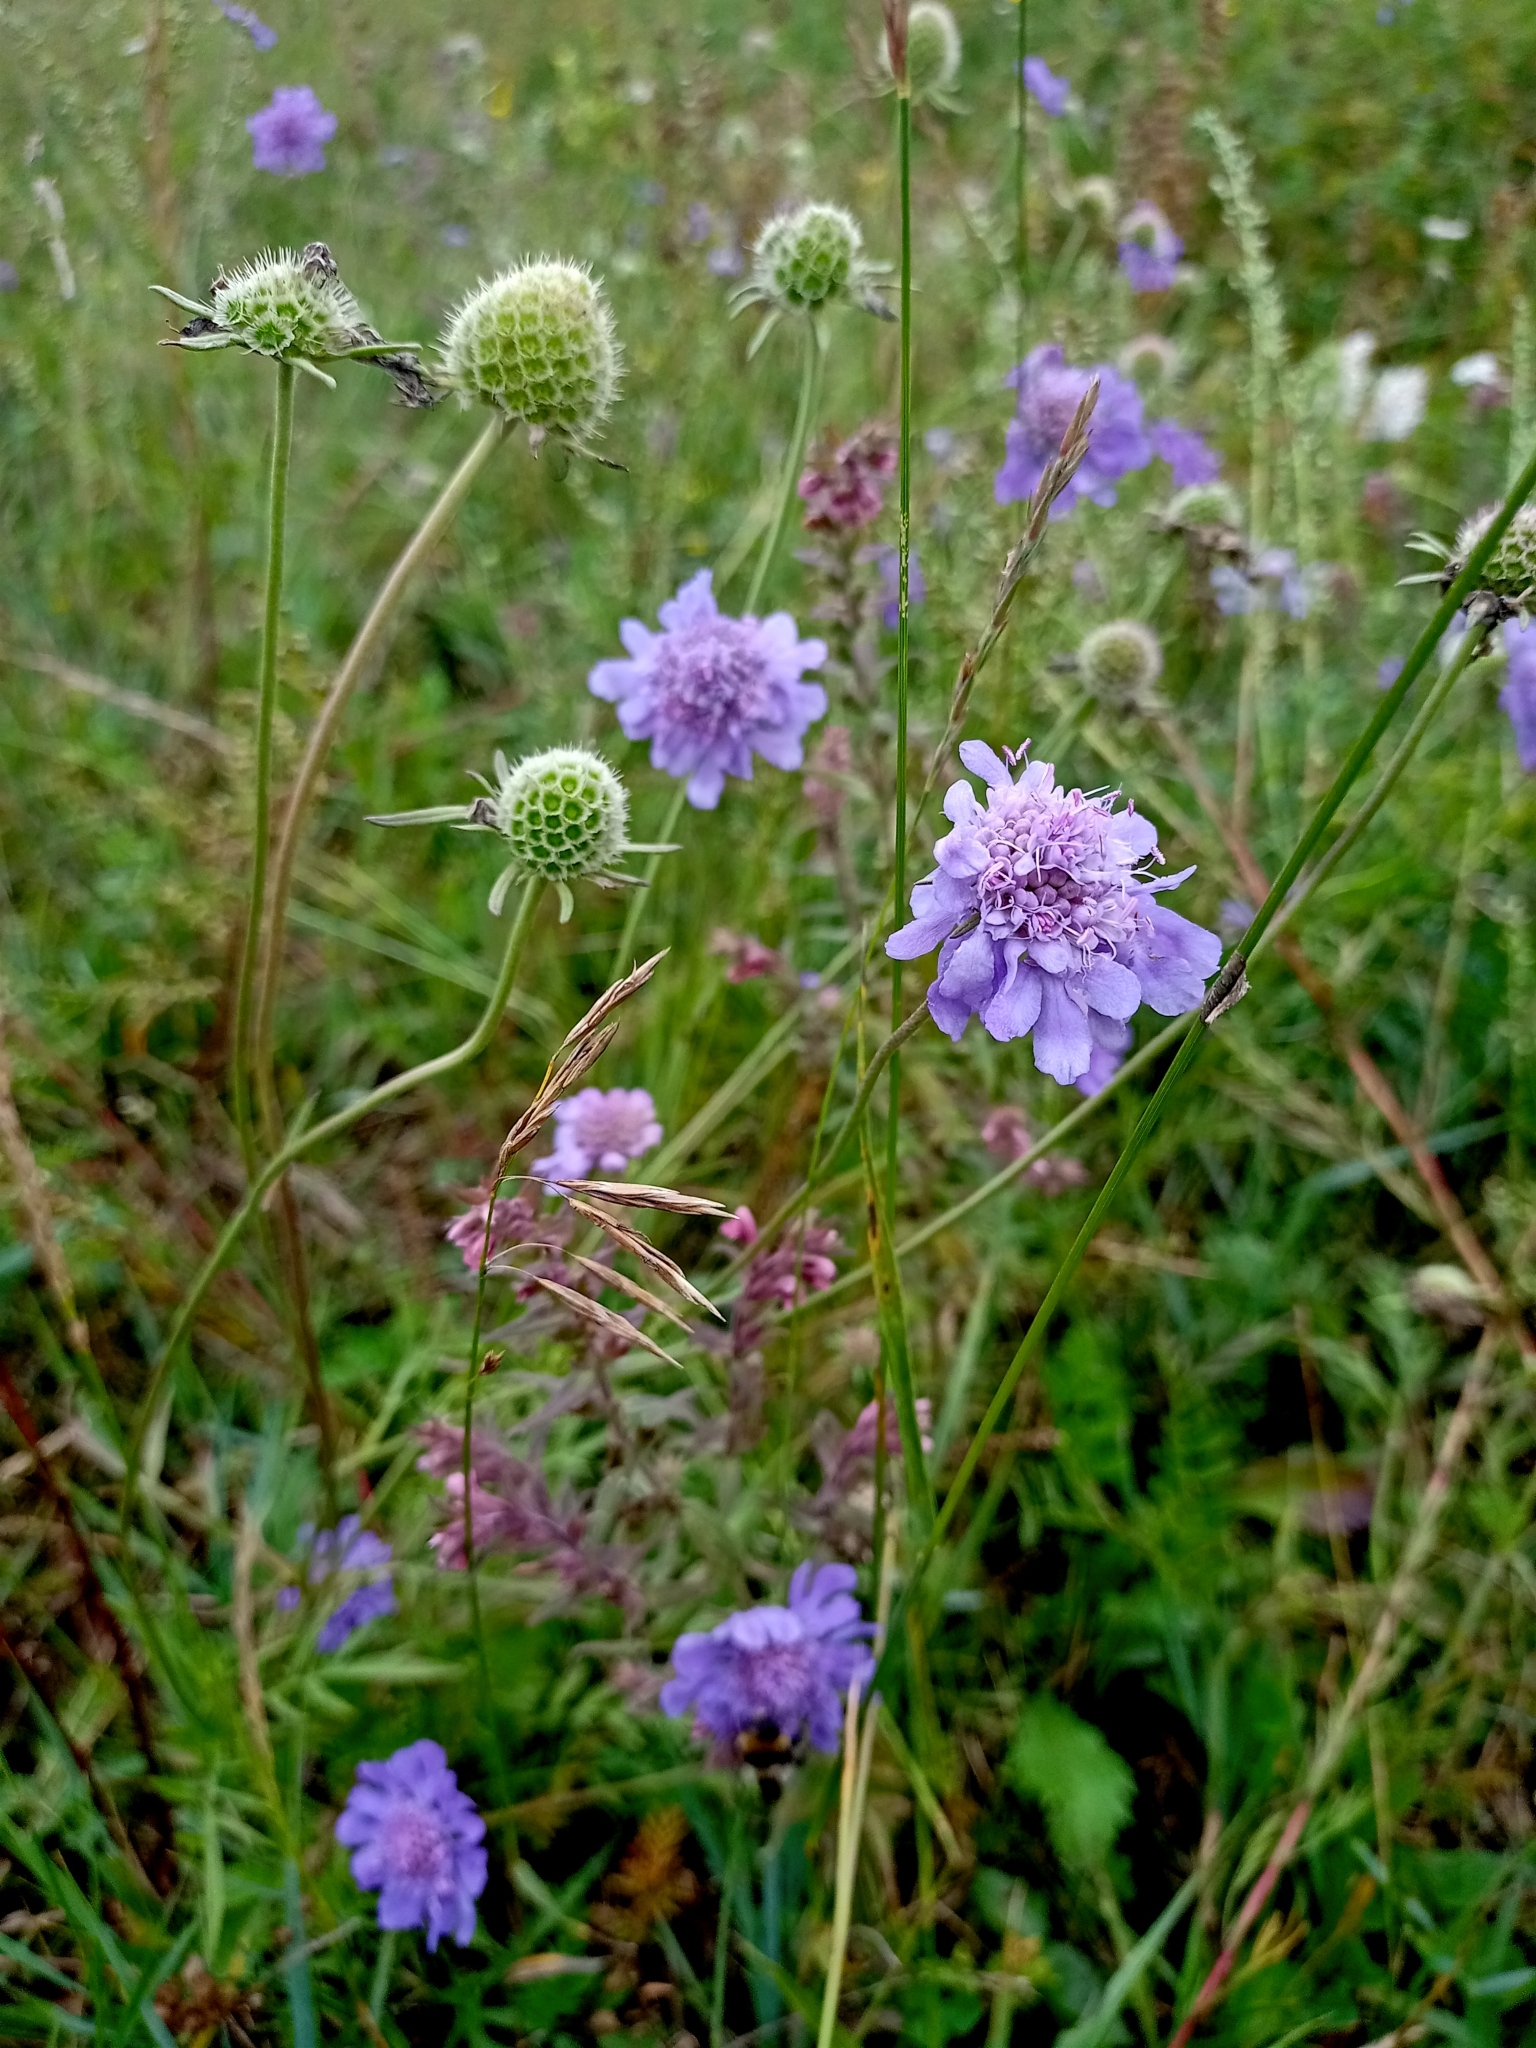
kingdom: Plantae
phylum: Tracheophyta
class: Magnoliopsida
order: Dipsacales
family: Caprifoliaceae
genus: Scabiosa
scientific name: Scabiosa comosa
